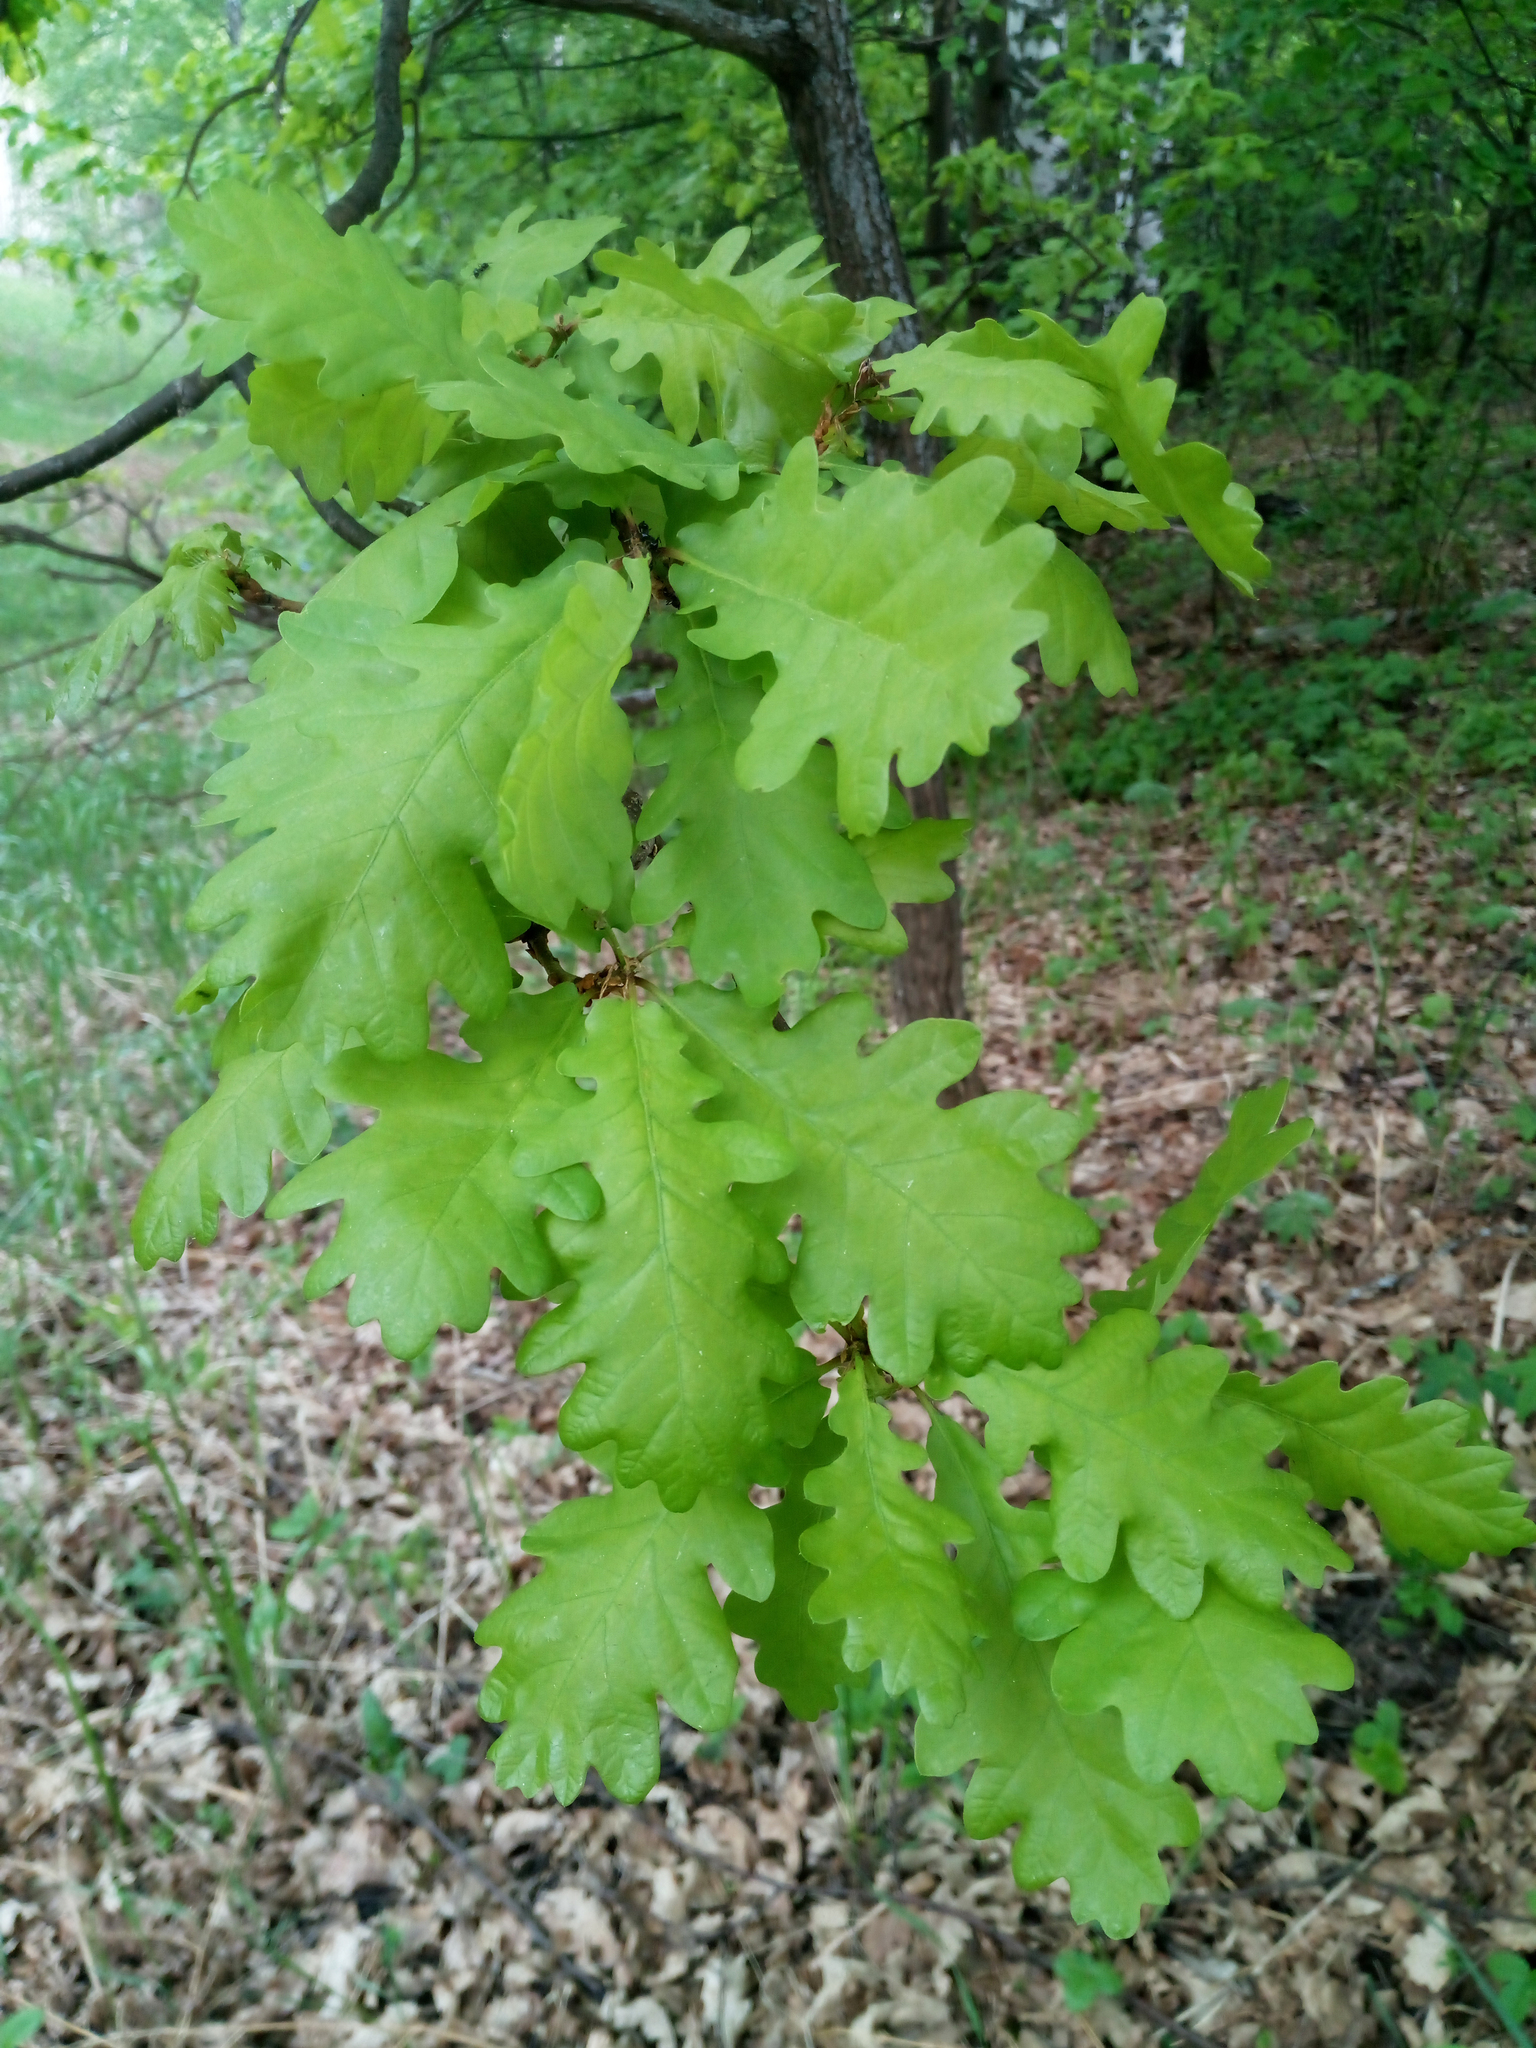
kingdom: Plantae
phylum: Tracheophyta
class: Magnoliopsida
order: Fagales
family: Fagaceae
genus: Quercus
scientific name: Quercus robur
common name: Pedunculate oak
